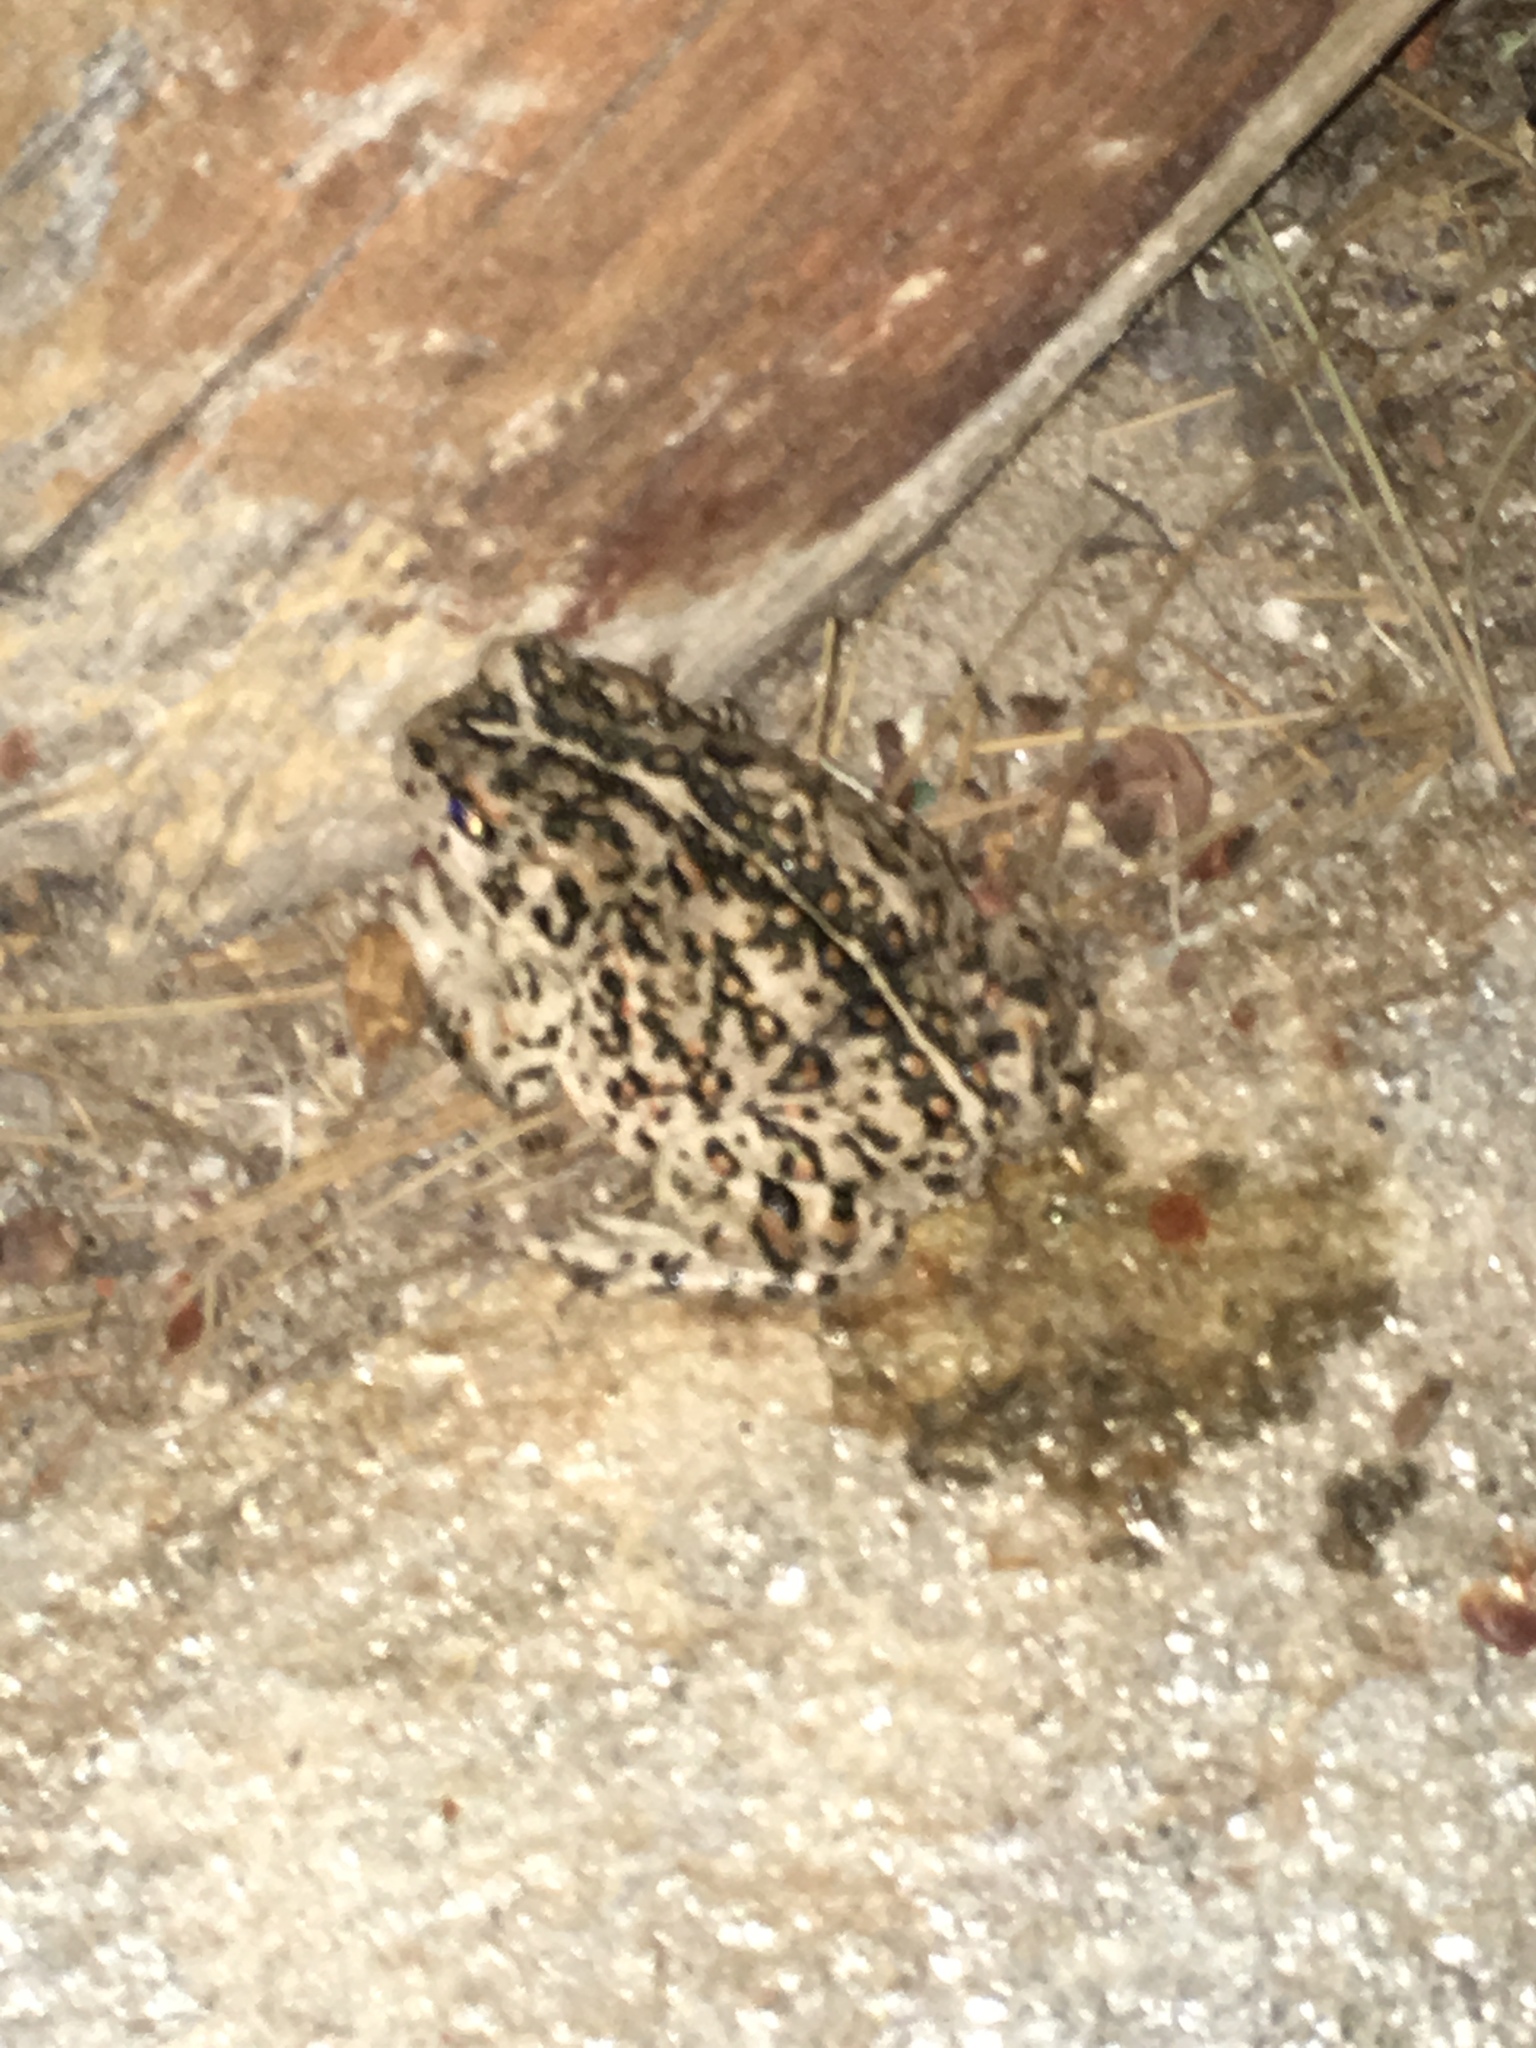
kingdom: Animalia
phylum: Chordata
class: Amphibia
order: Anura
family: Bufonidae
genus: Anaxyrus
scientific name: Anaxyrus boreas
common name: Western toad
